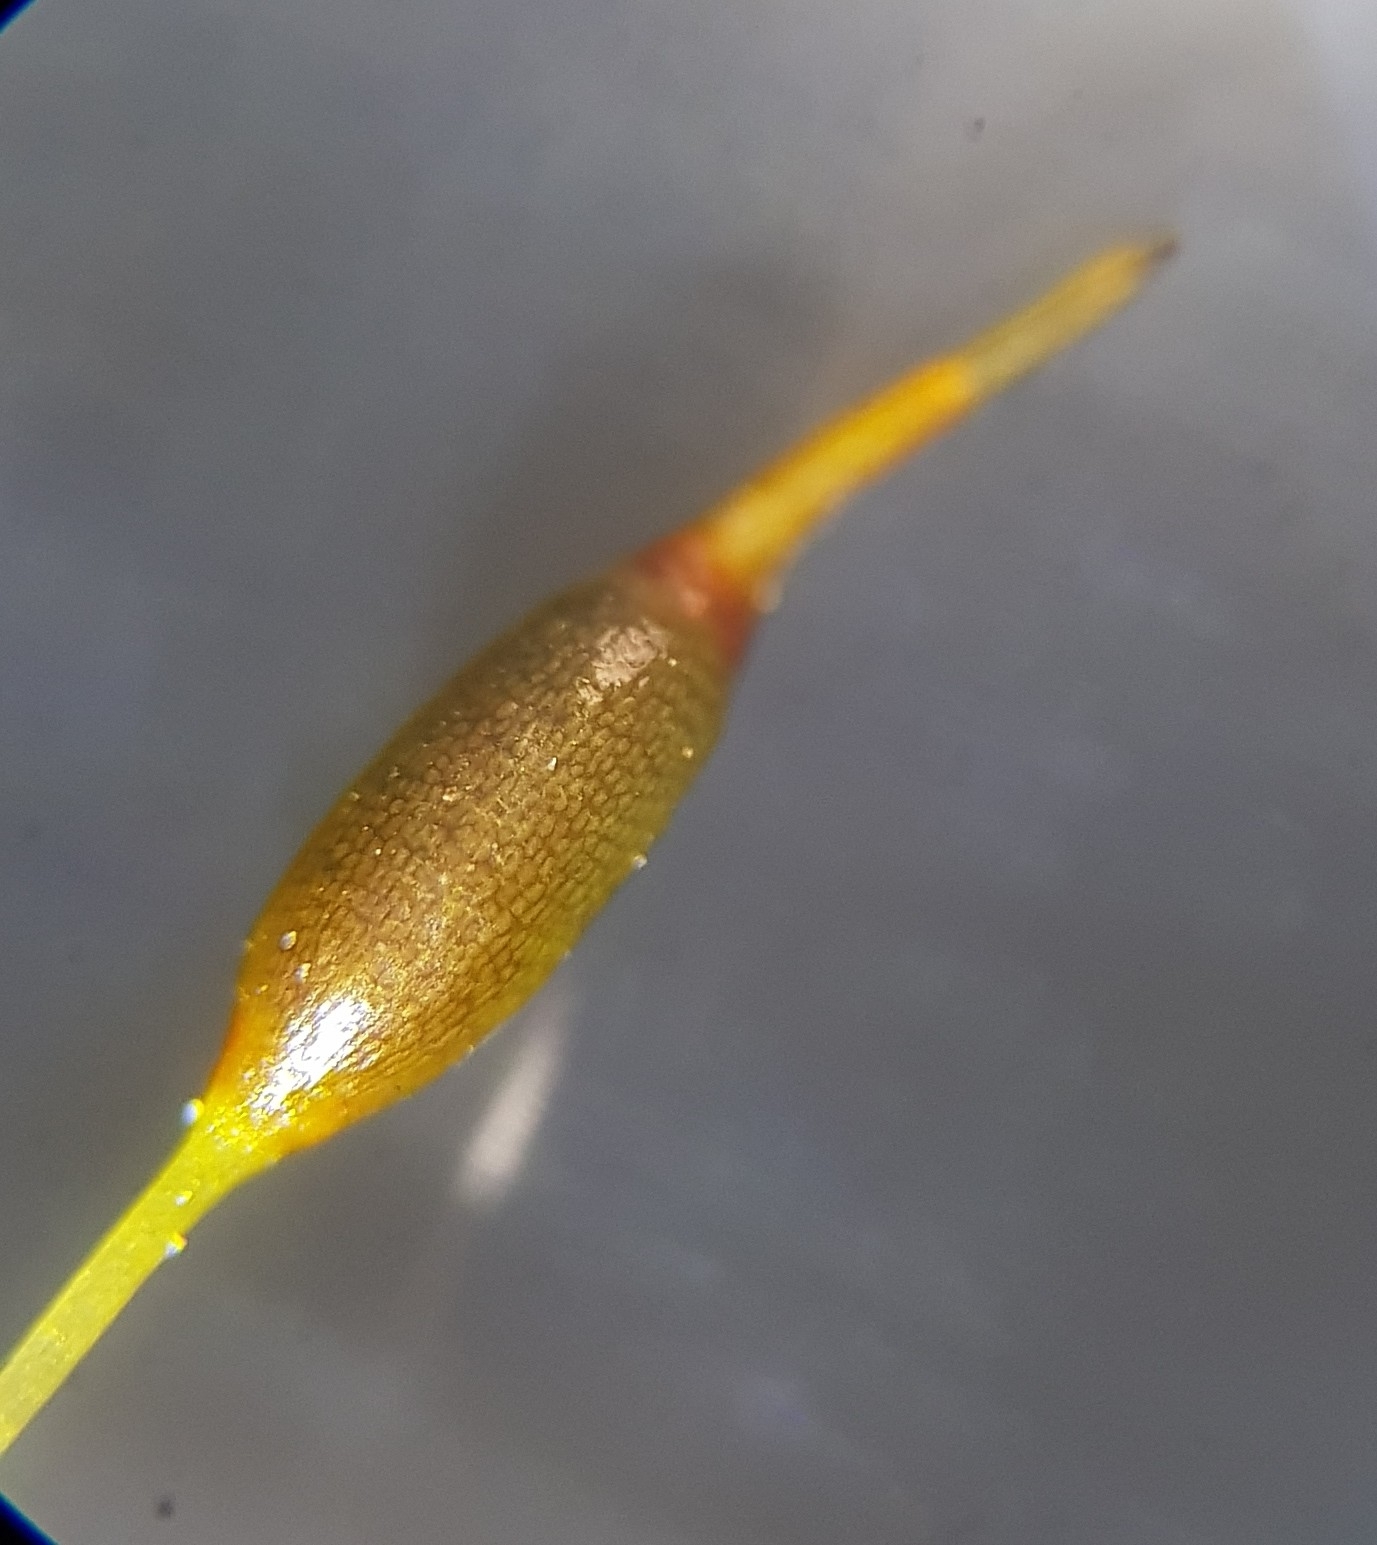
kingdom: Plantae
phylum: Bryophyta
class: Bryopsida
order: Pottiales
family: Pottiaceae
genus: Weissia
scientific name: Weissia controversa
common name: Green-tufted stubble moss
